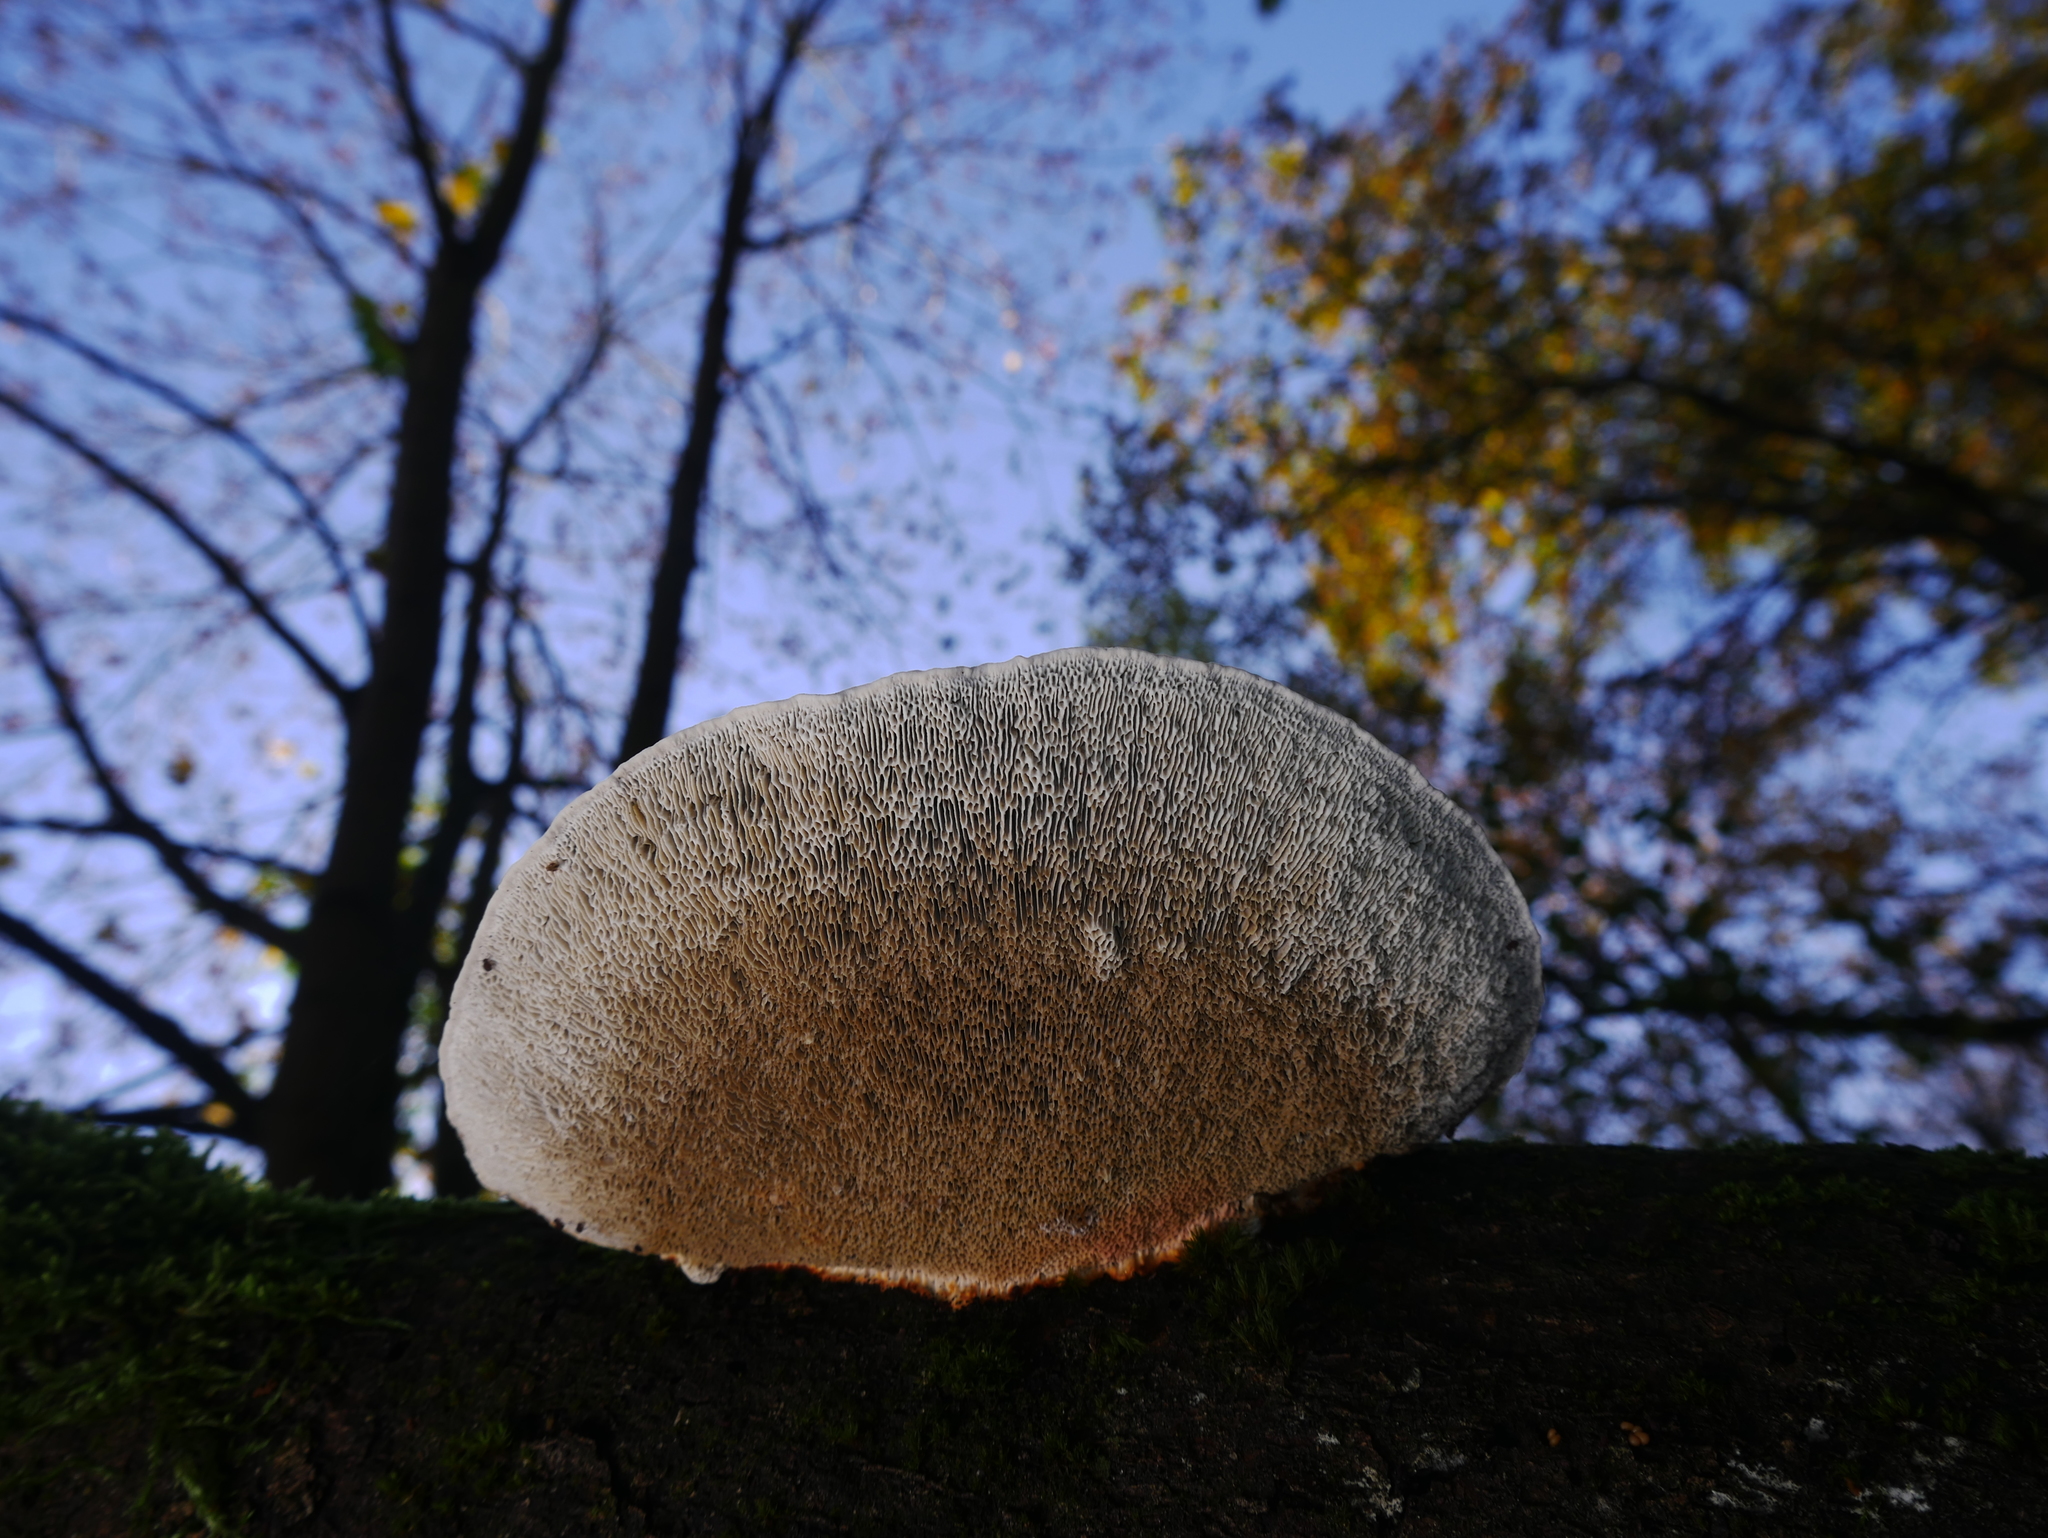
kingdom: Fungi
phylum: Basidiomycota
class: Agaricomycetes
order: Polyporales
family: Polyporaceae
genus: Daedaleopsis
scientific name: Daedaleopsis confragosa
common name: Blushing bracket
